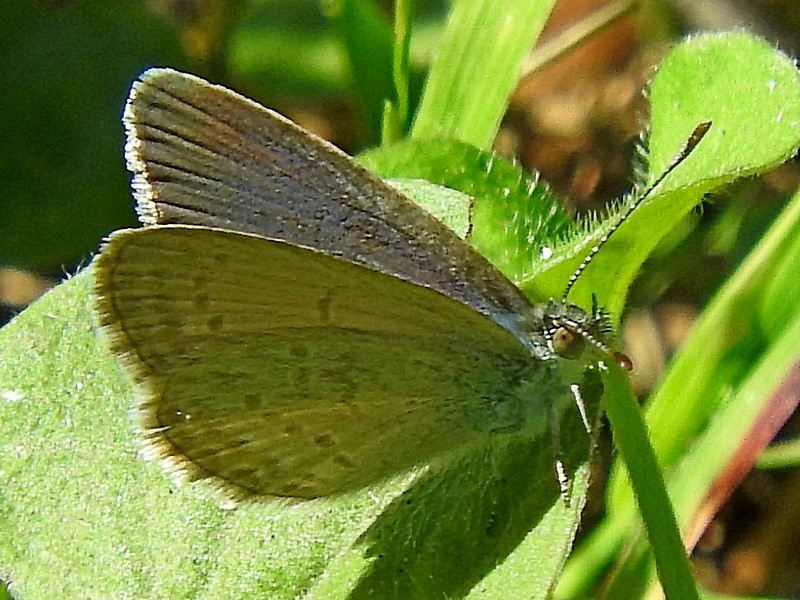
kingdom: Animalia
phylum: Arthropoda
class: Insecta
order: Lepidoptera
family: Lycaenidae
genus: Zizina
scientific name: Zizina labradus
